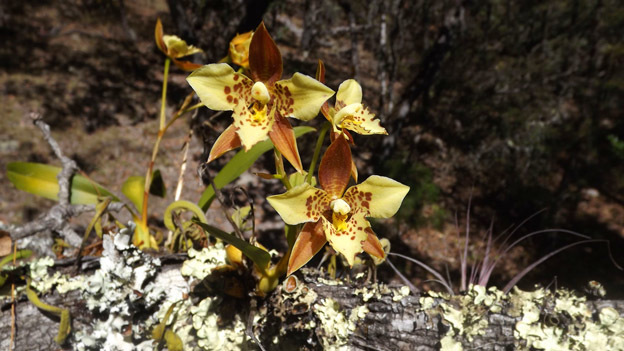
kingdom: Plantae
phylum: Tracheophyta
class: Liliopsida
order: Asparagales
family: Orchidaceae
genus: Rhynchostele
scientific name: Rhynchostele maculata
